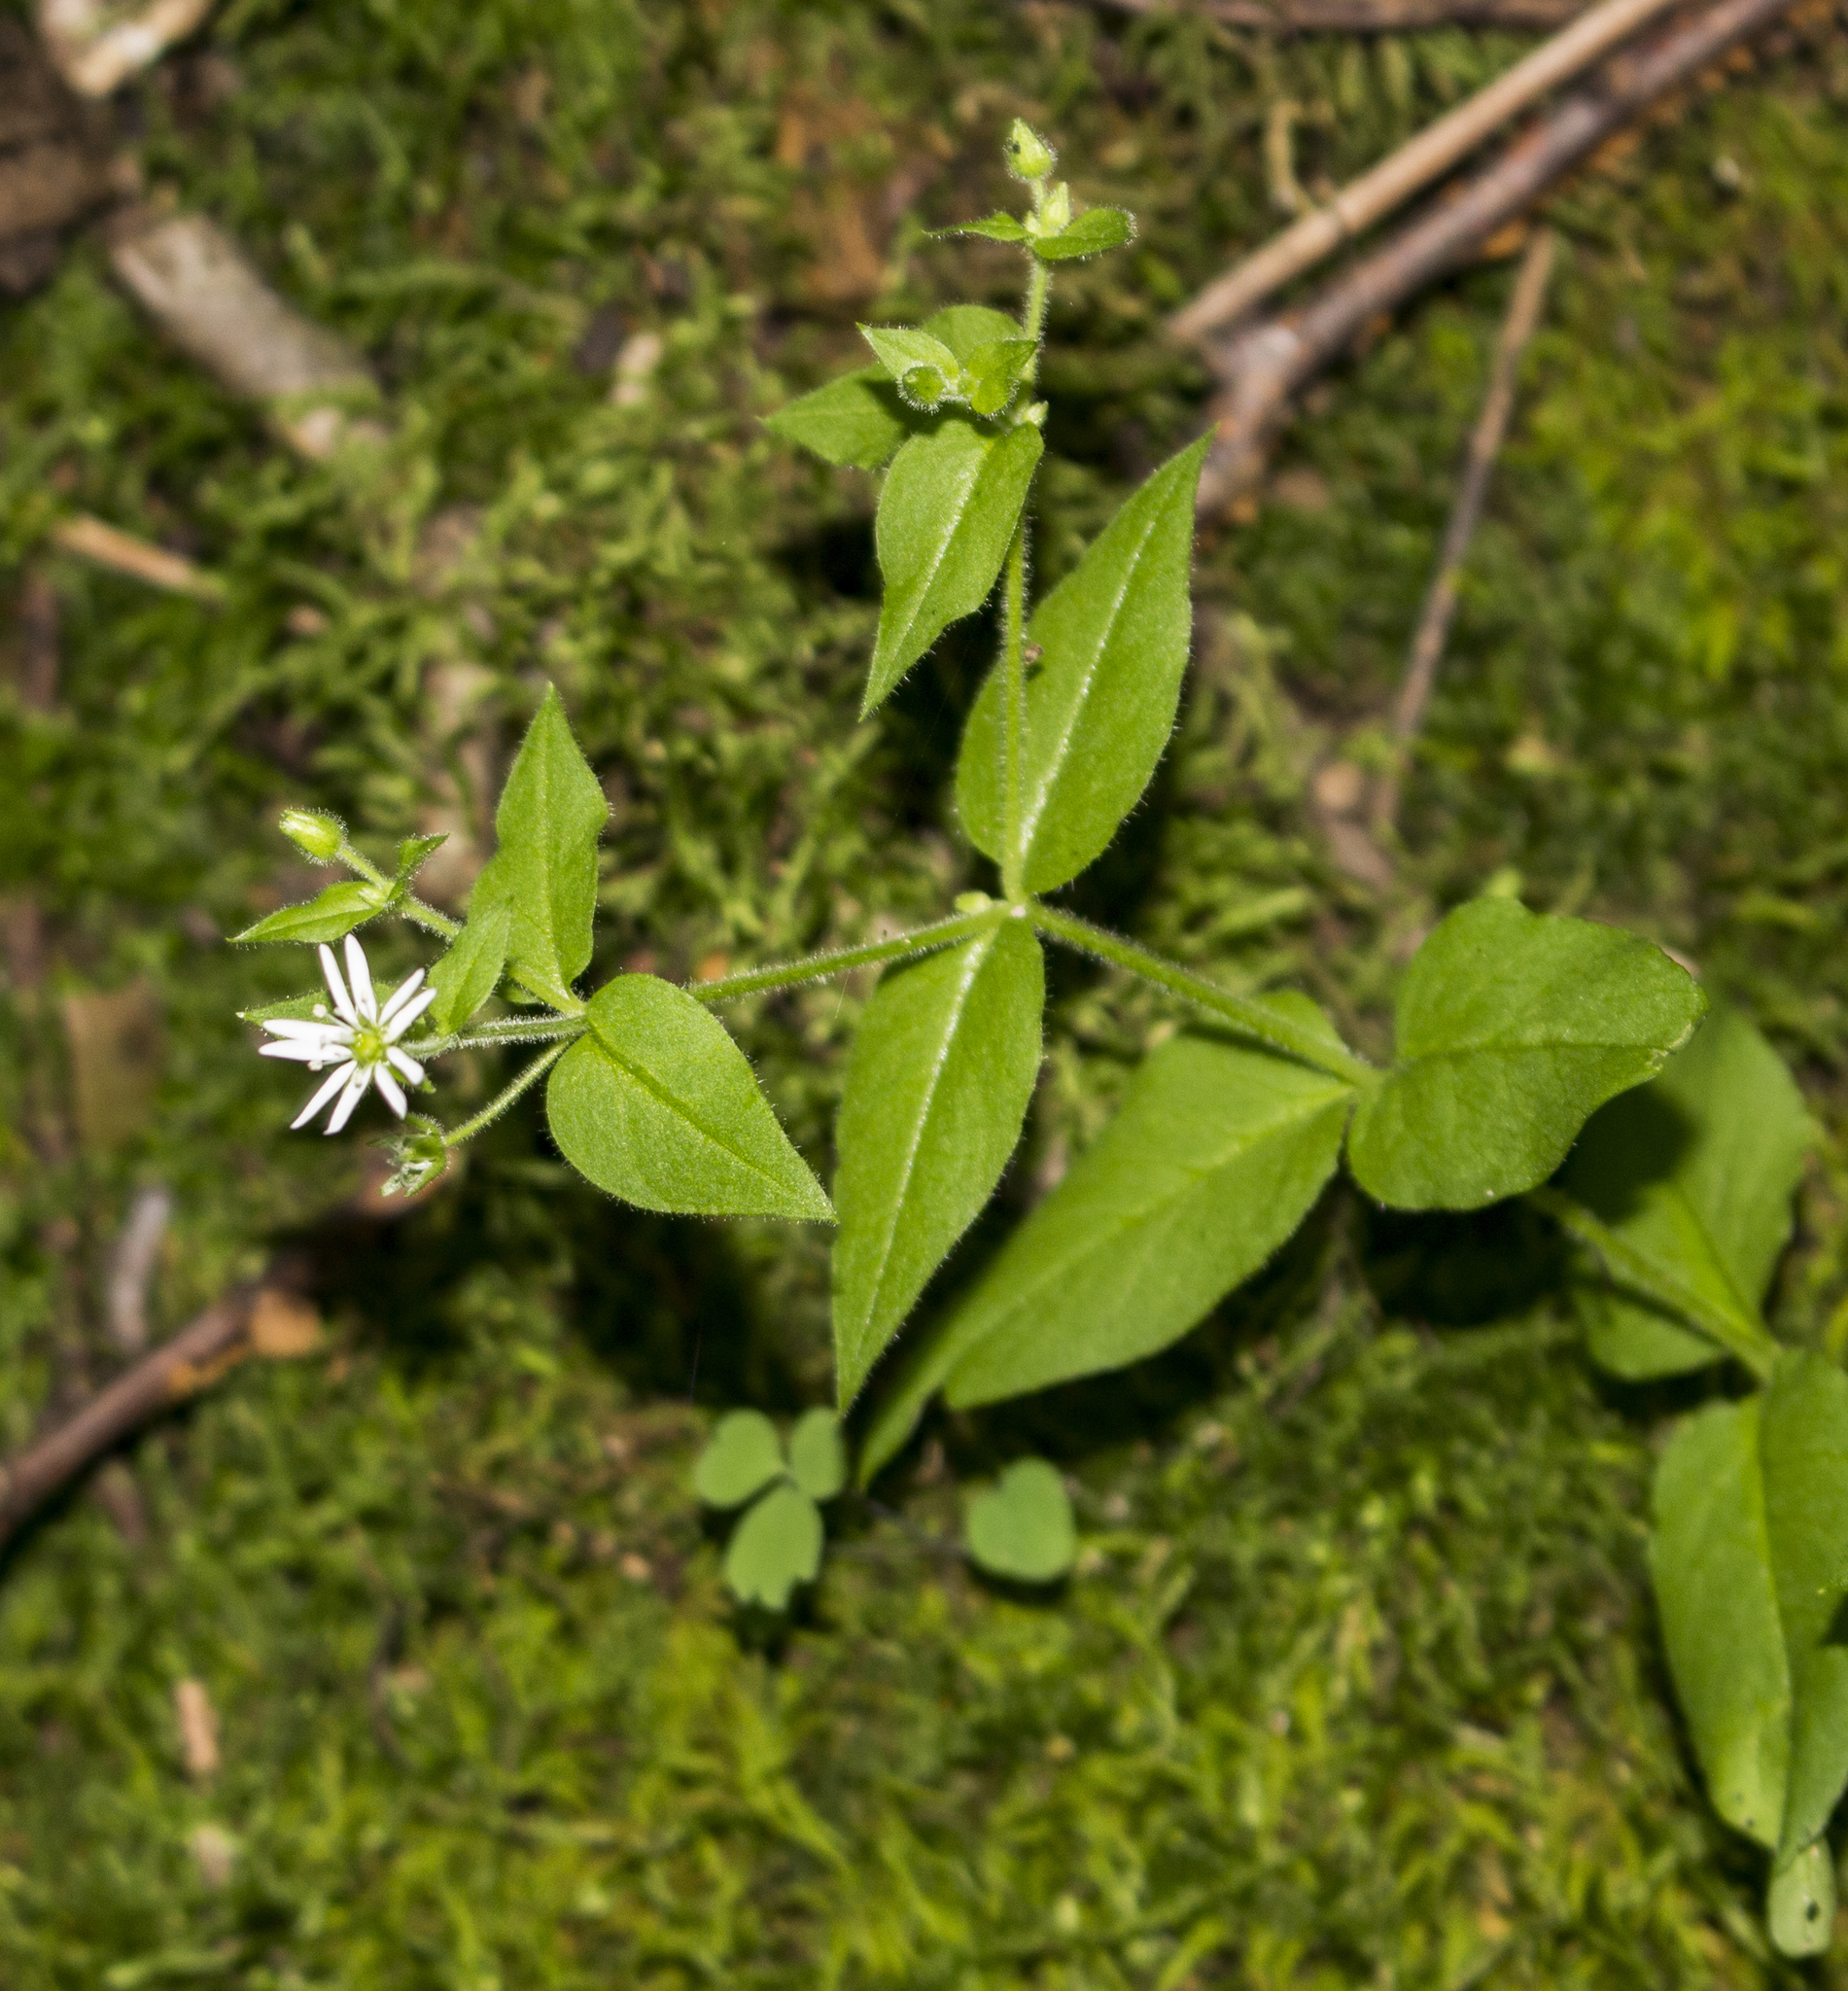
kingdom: Plantae
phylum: Tracheophyta
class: Magnoliopsida
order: Caryophyllales
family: Caryophyllaceae
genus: Stellaria
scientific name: Stellaria aquatica
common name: Water chickweed
